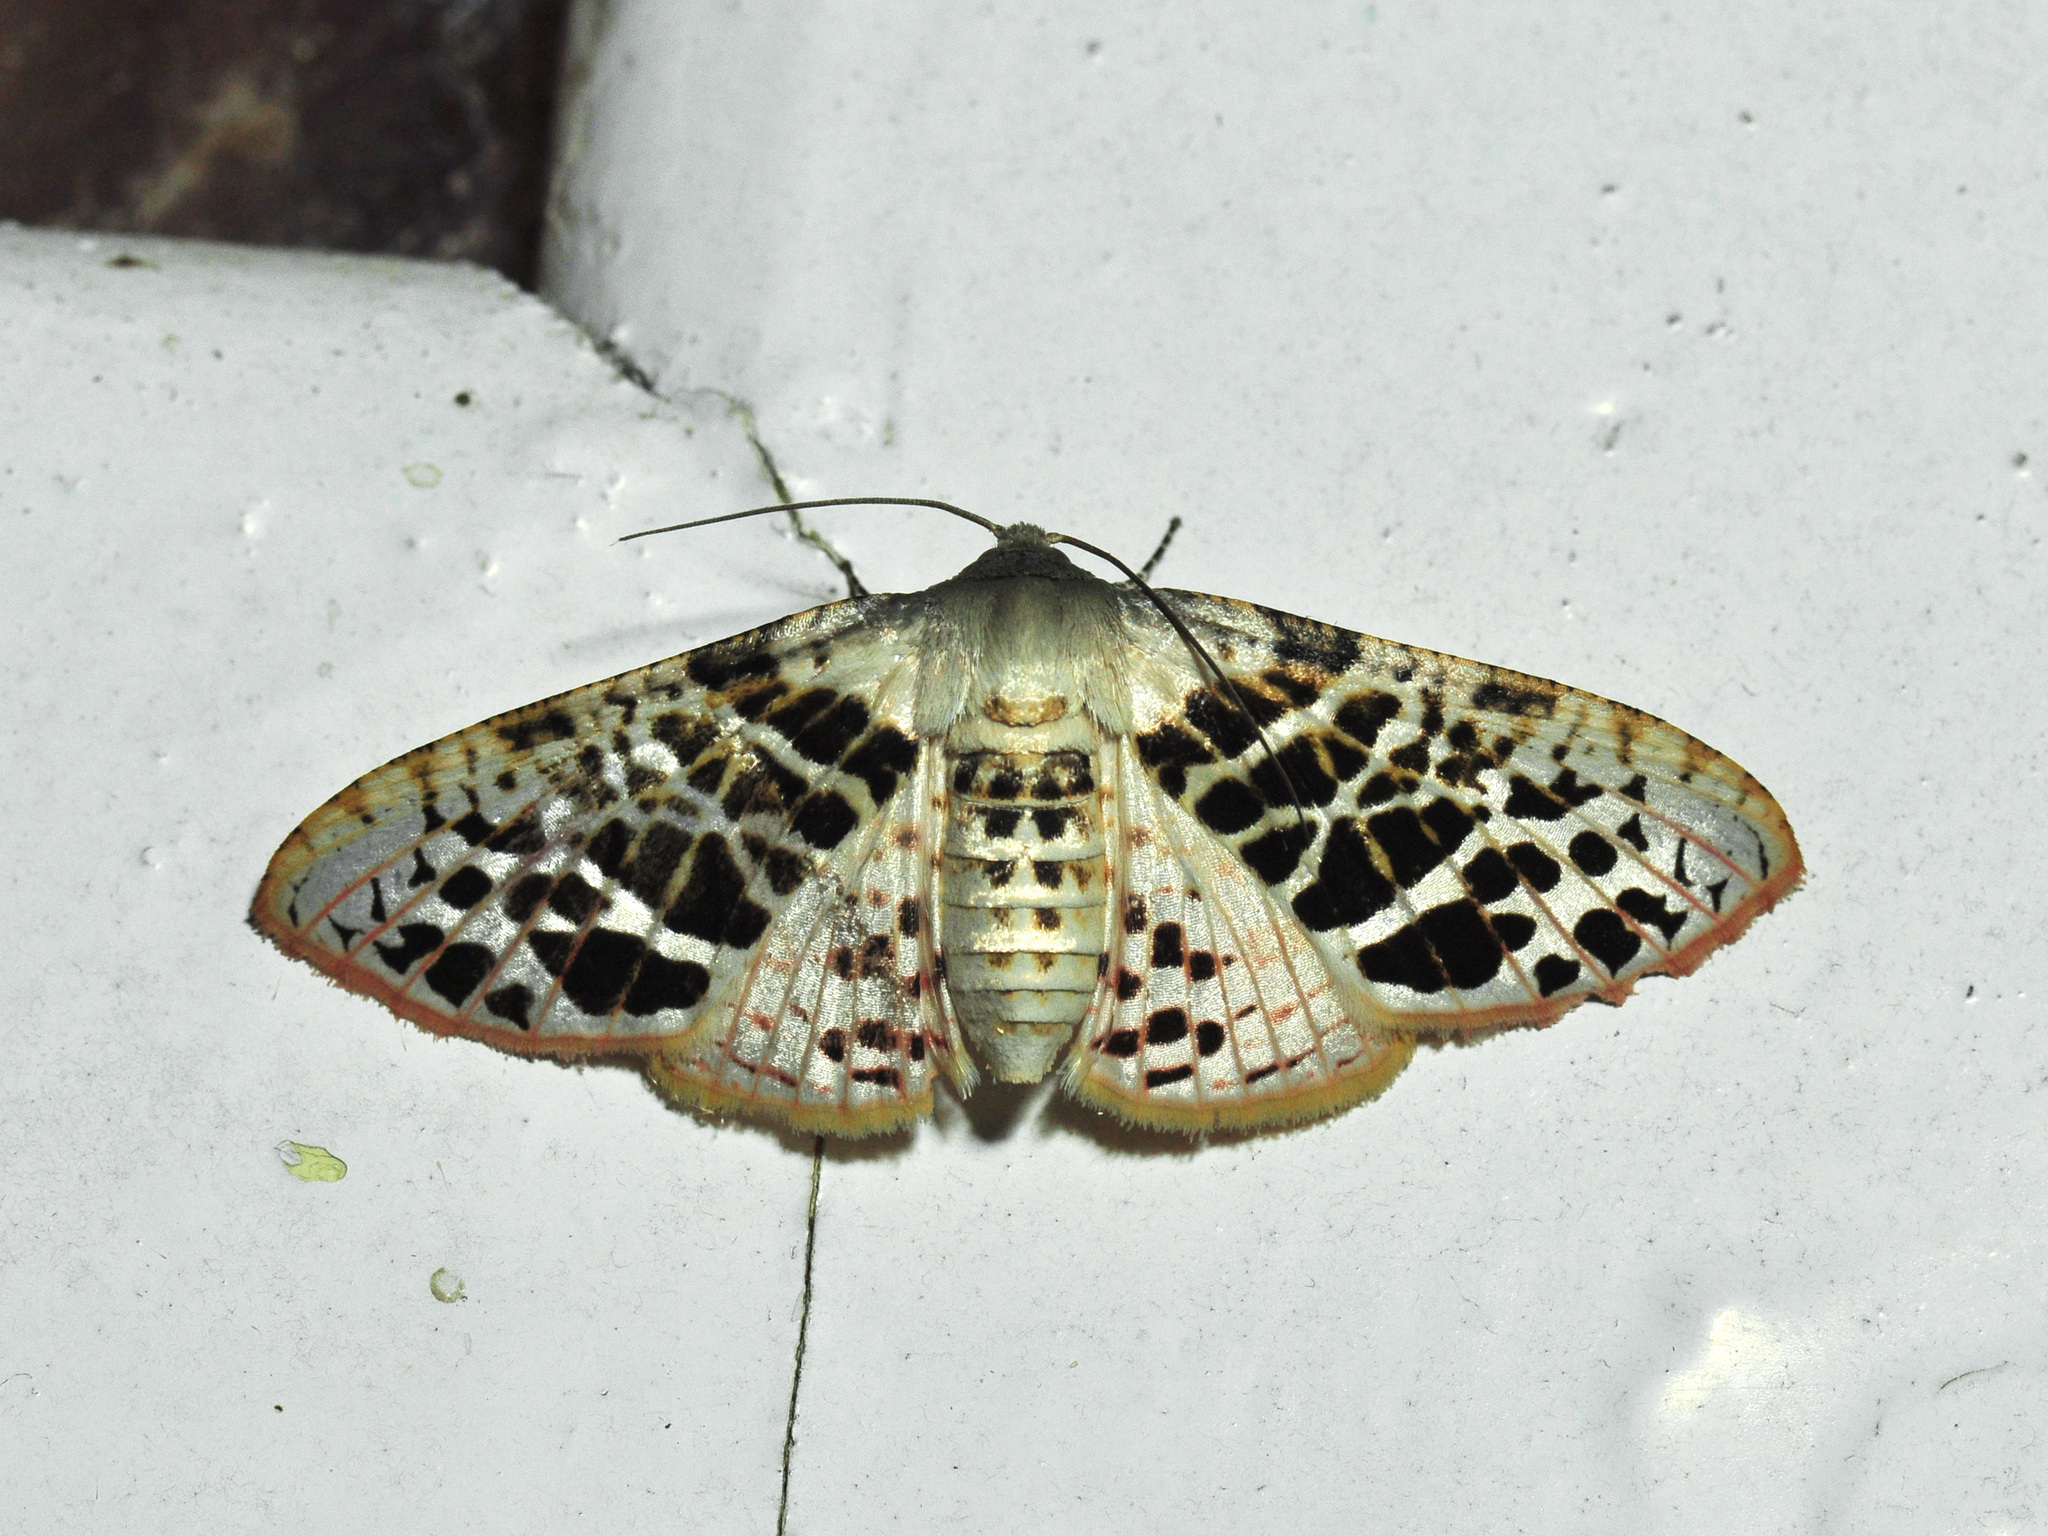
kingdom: Animalia
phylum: Arthropoda
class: Insecta
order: Lepidoptera
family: Thyrididae
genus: Rhodoneura
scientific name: Rhodoneura pudicula
